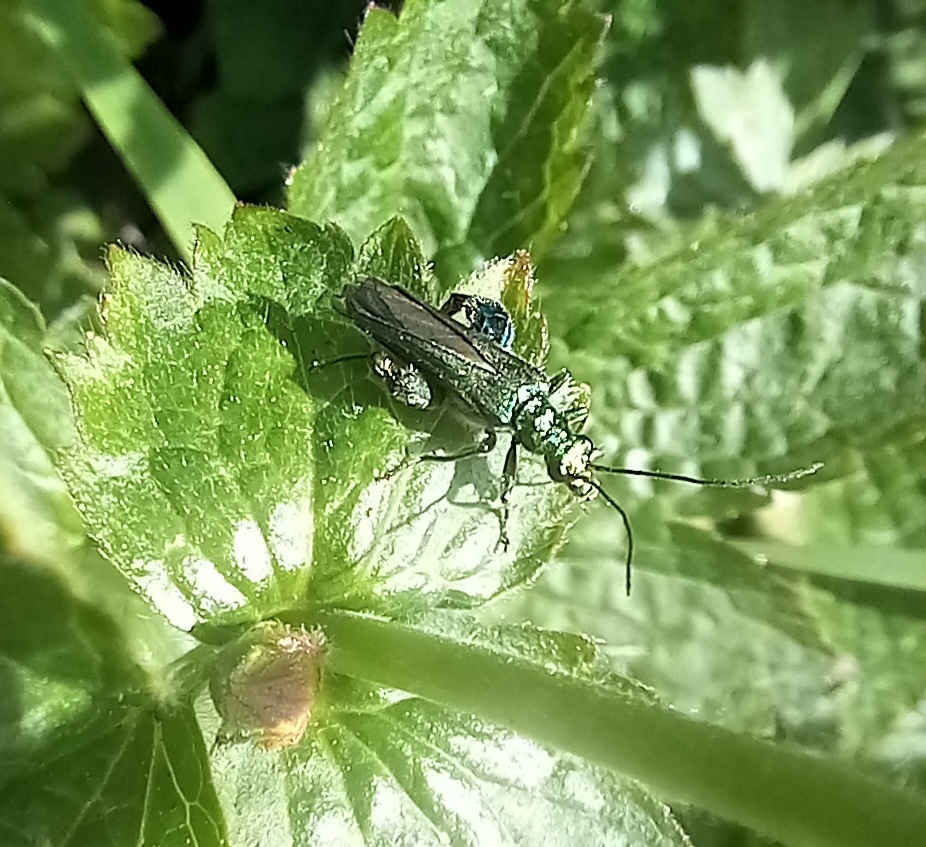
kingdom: Animalia
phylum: Arthropoda
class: Insecta
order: Coleoptera
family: Oedemeridae
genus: Oedemera
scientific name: Oedemera nobilis
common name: Swollen-thighed beetle
